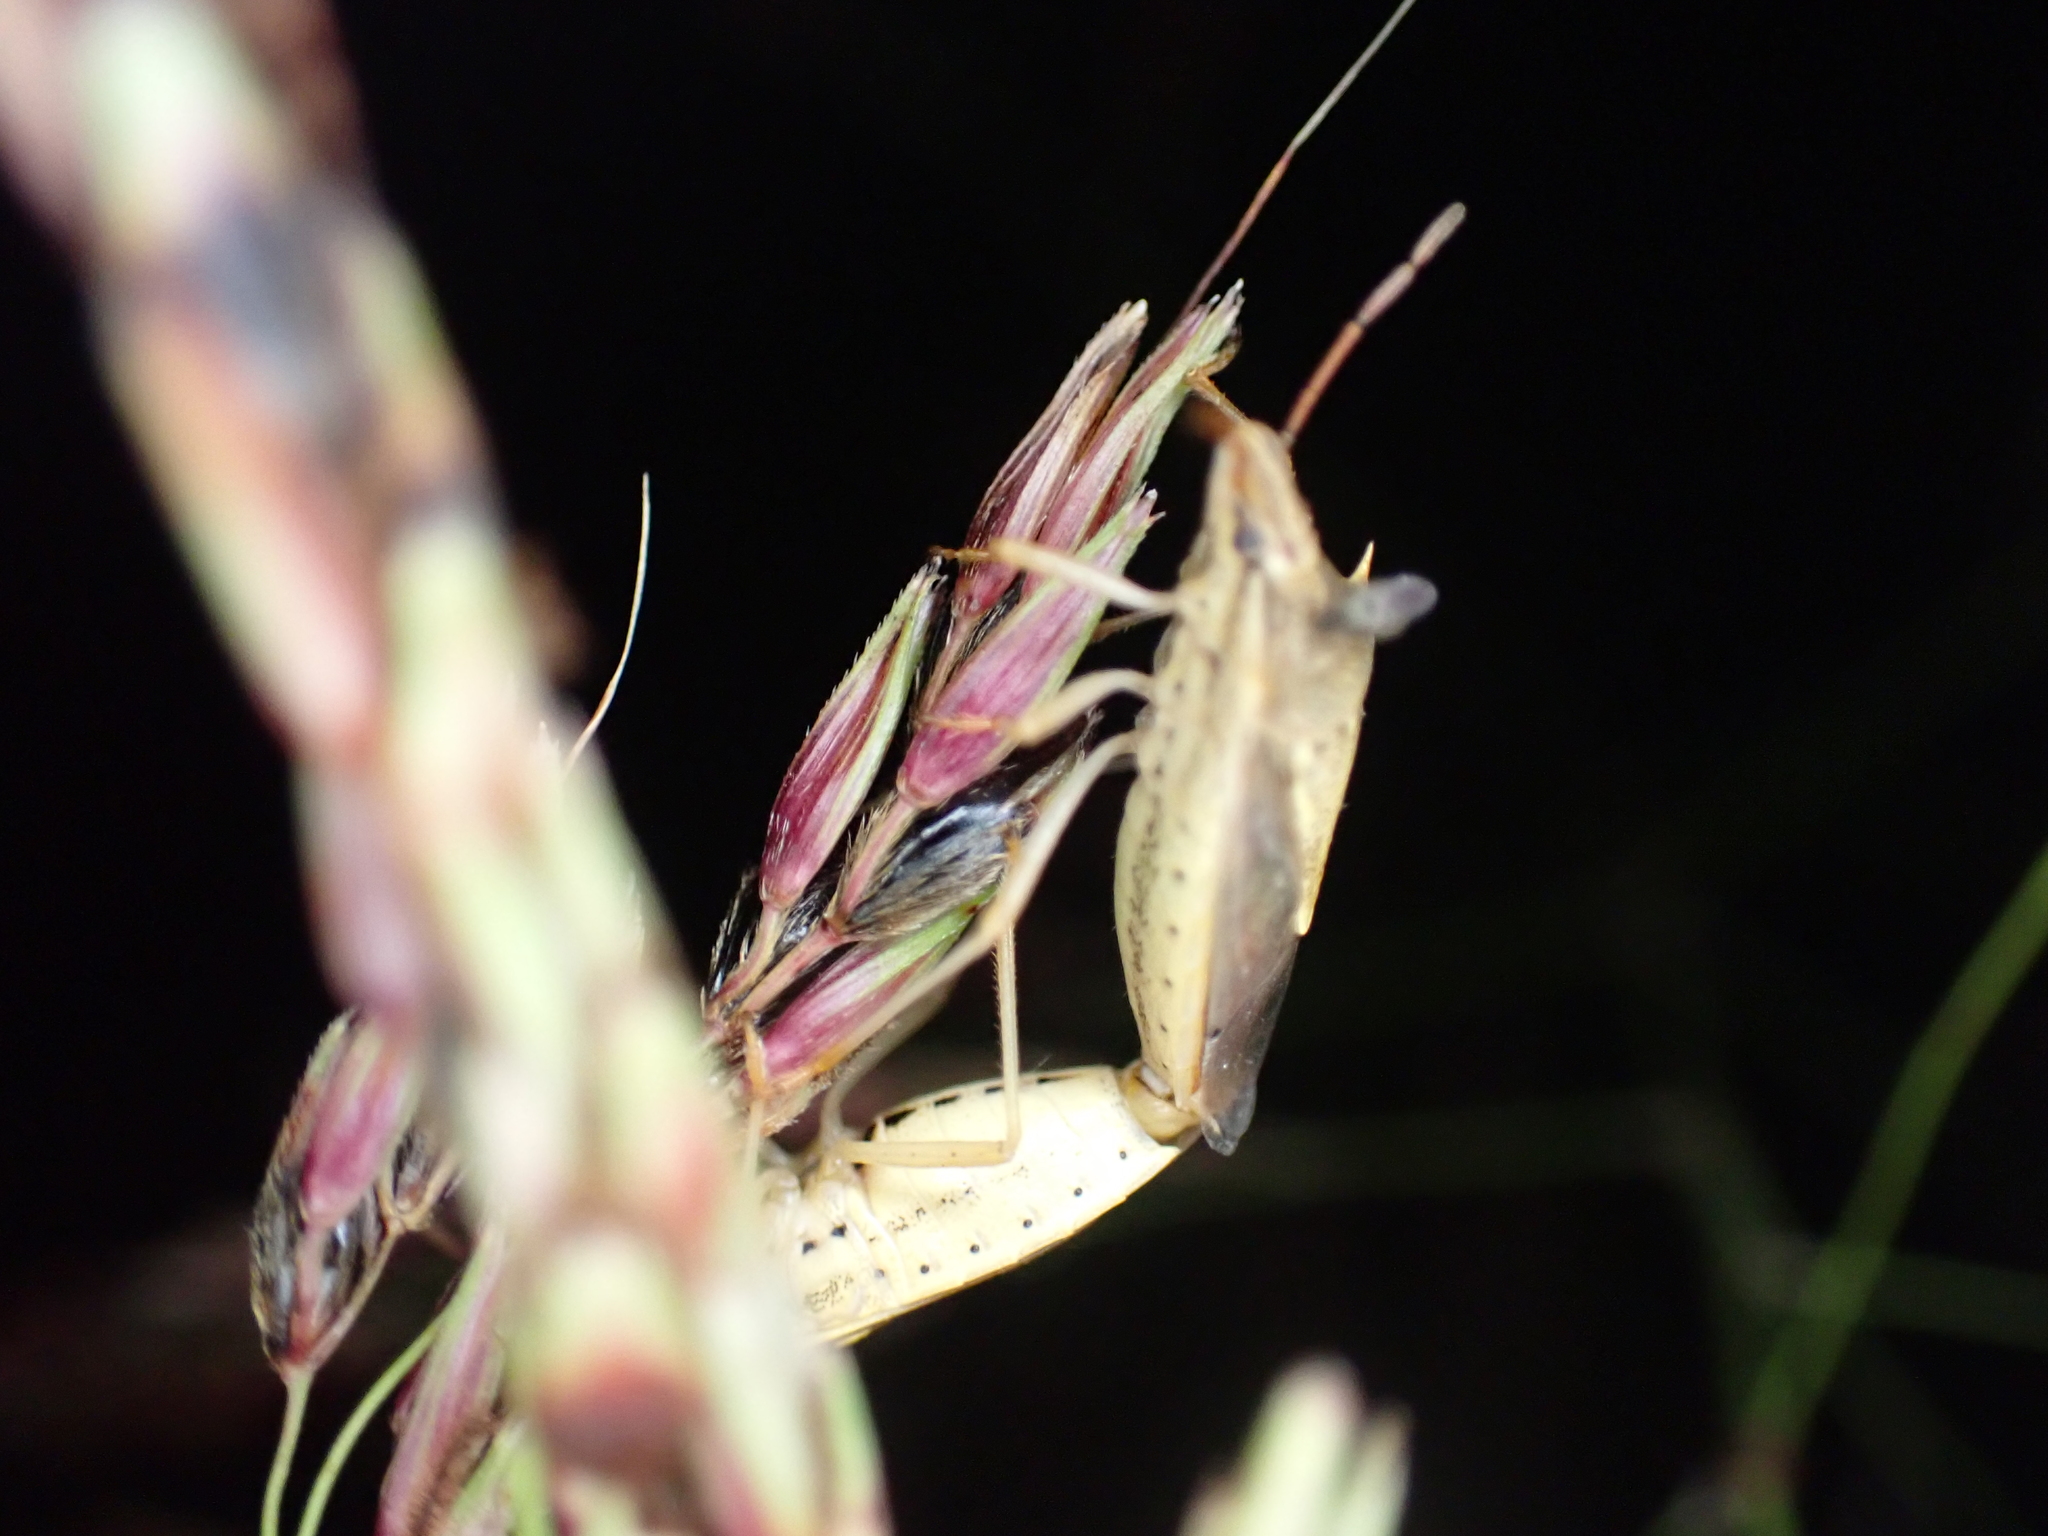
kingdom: Animalia
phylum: Arthropoda
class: Insecta
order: Hemiptera
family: Pentatomidae
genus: Oebalus
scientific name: Oebalus pugnax
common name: Rice stink bug
